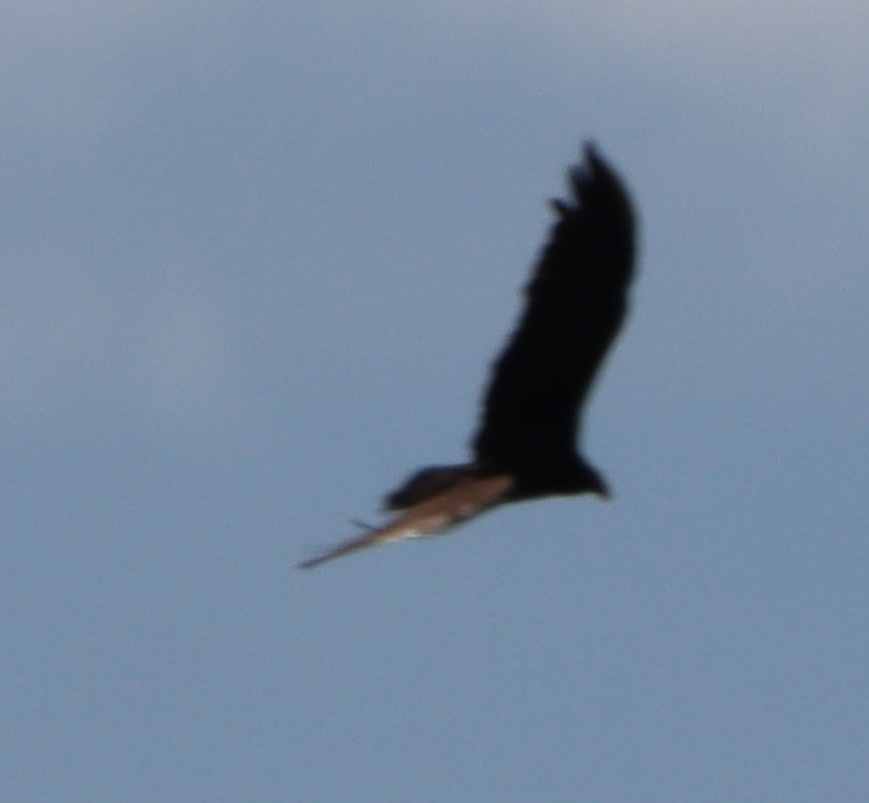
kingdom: Animalia
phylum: Chordata
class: Aves
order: Accipitriformes
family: Cathartidae
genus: Cathartes
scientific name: Cathartes aura
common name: Turkey vulture
